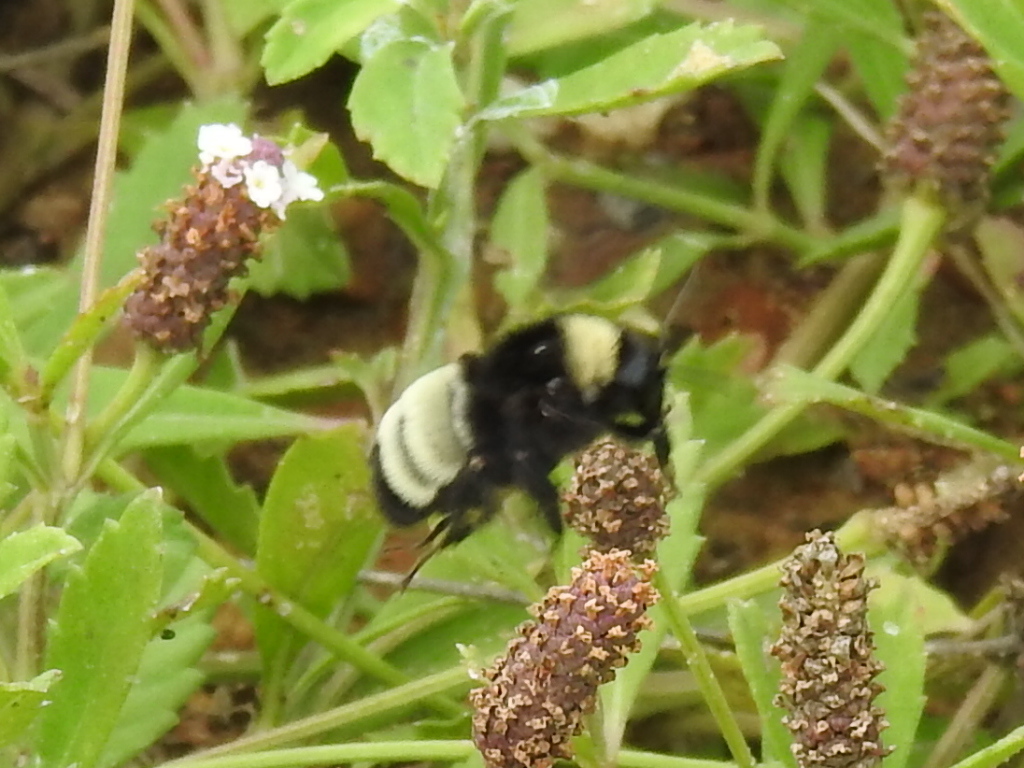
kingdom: Animalia
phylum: Arthropoda
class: Insecta
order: Hymenoptera
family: Apidae
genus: Bombus
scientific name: Bombus pensylvanicus
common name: Bumble bee
